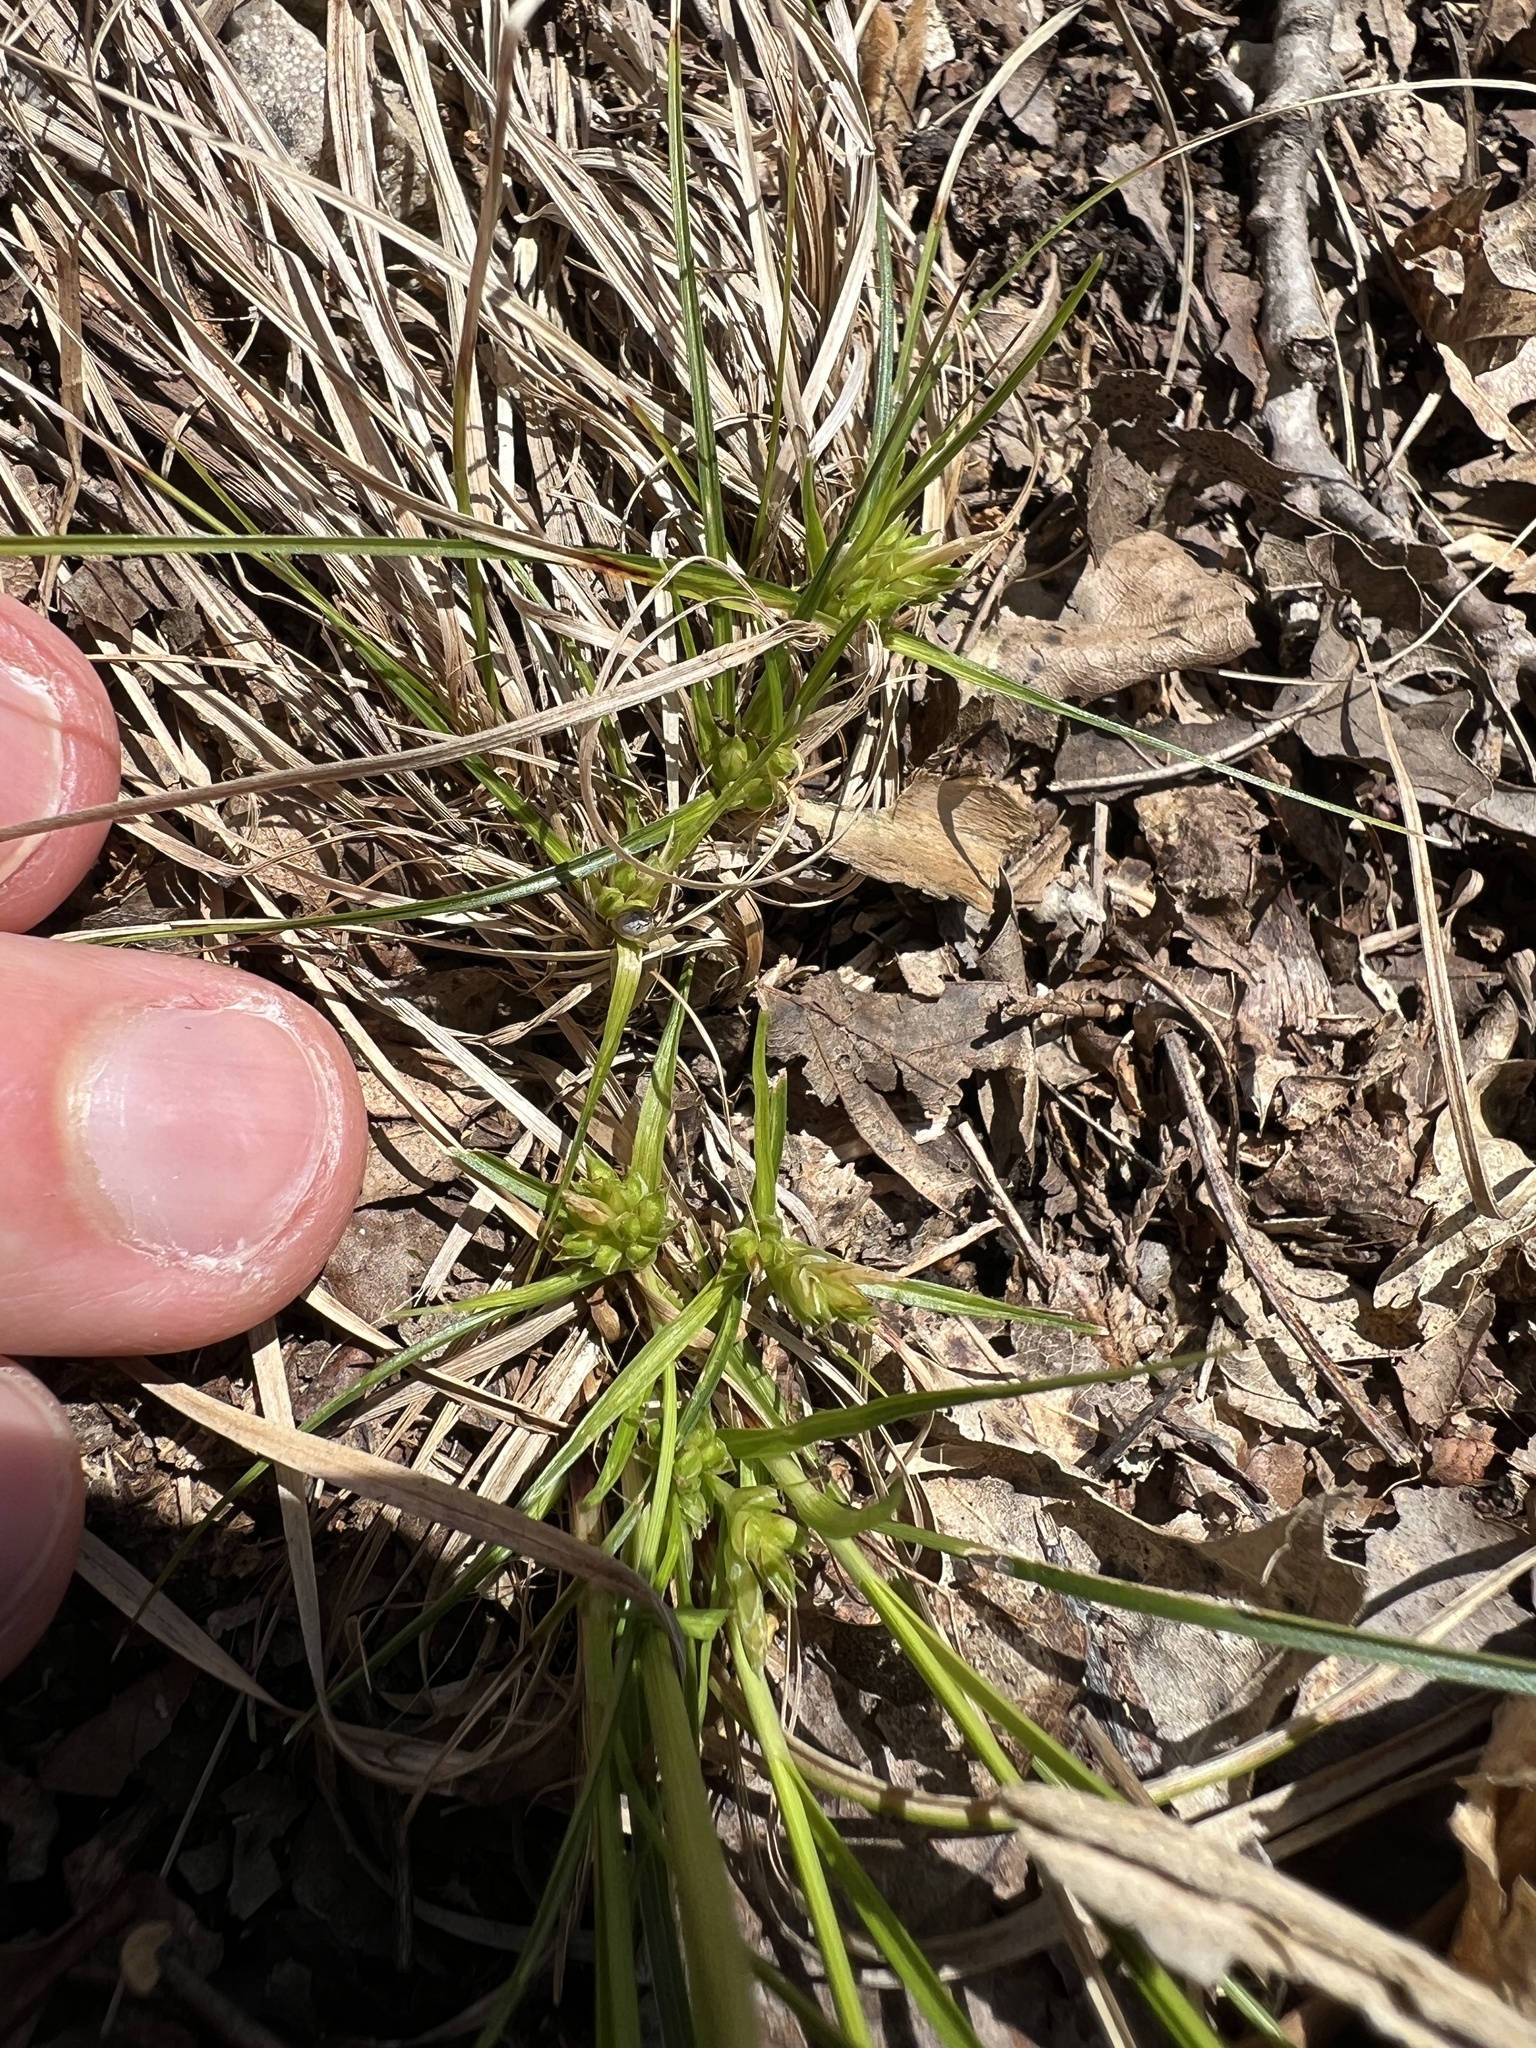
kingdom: Plantae
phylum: Tracheophyta
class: Liliopsida
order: Poales
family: Cyperaceae
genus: Carex
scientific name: Carex umbellata
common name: Early oak sedge
